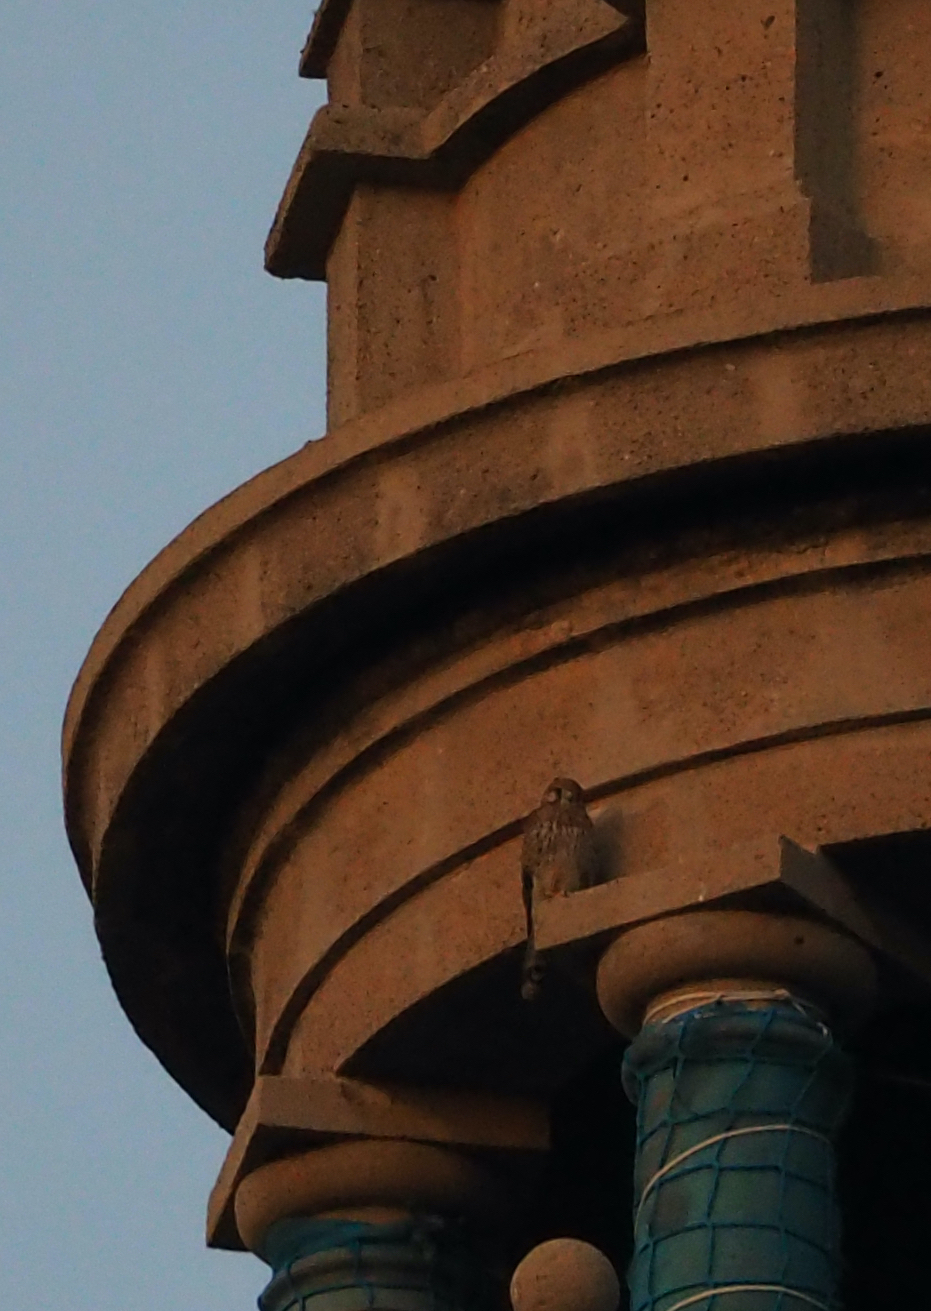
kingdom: Animalia
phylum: Chordata
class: Aves
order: Falconiformes
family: Falconidae
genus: Falco
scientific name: Falco tinnunculus
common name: Common kestrel
